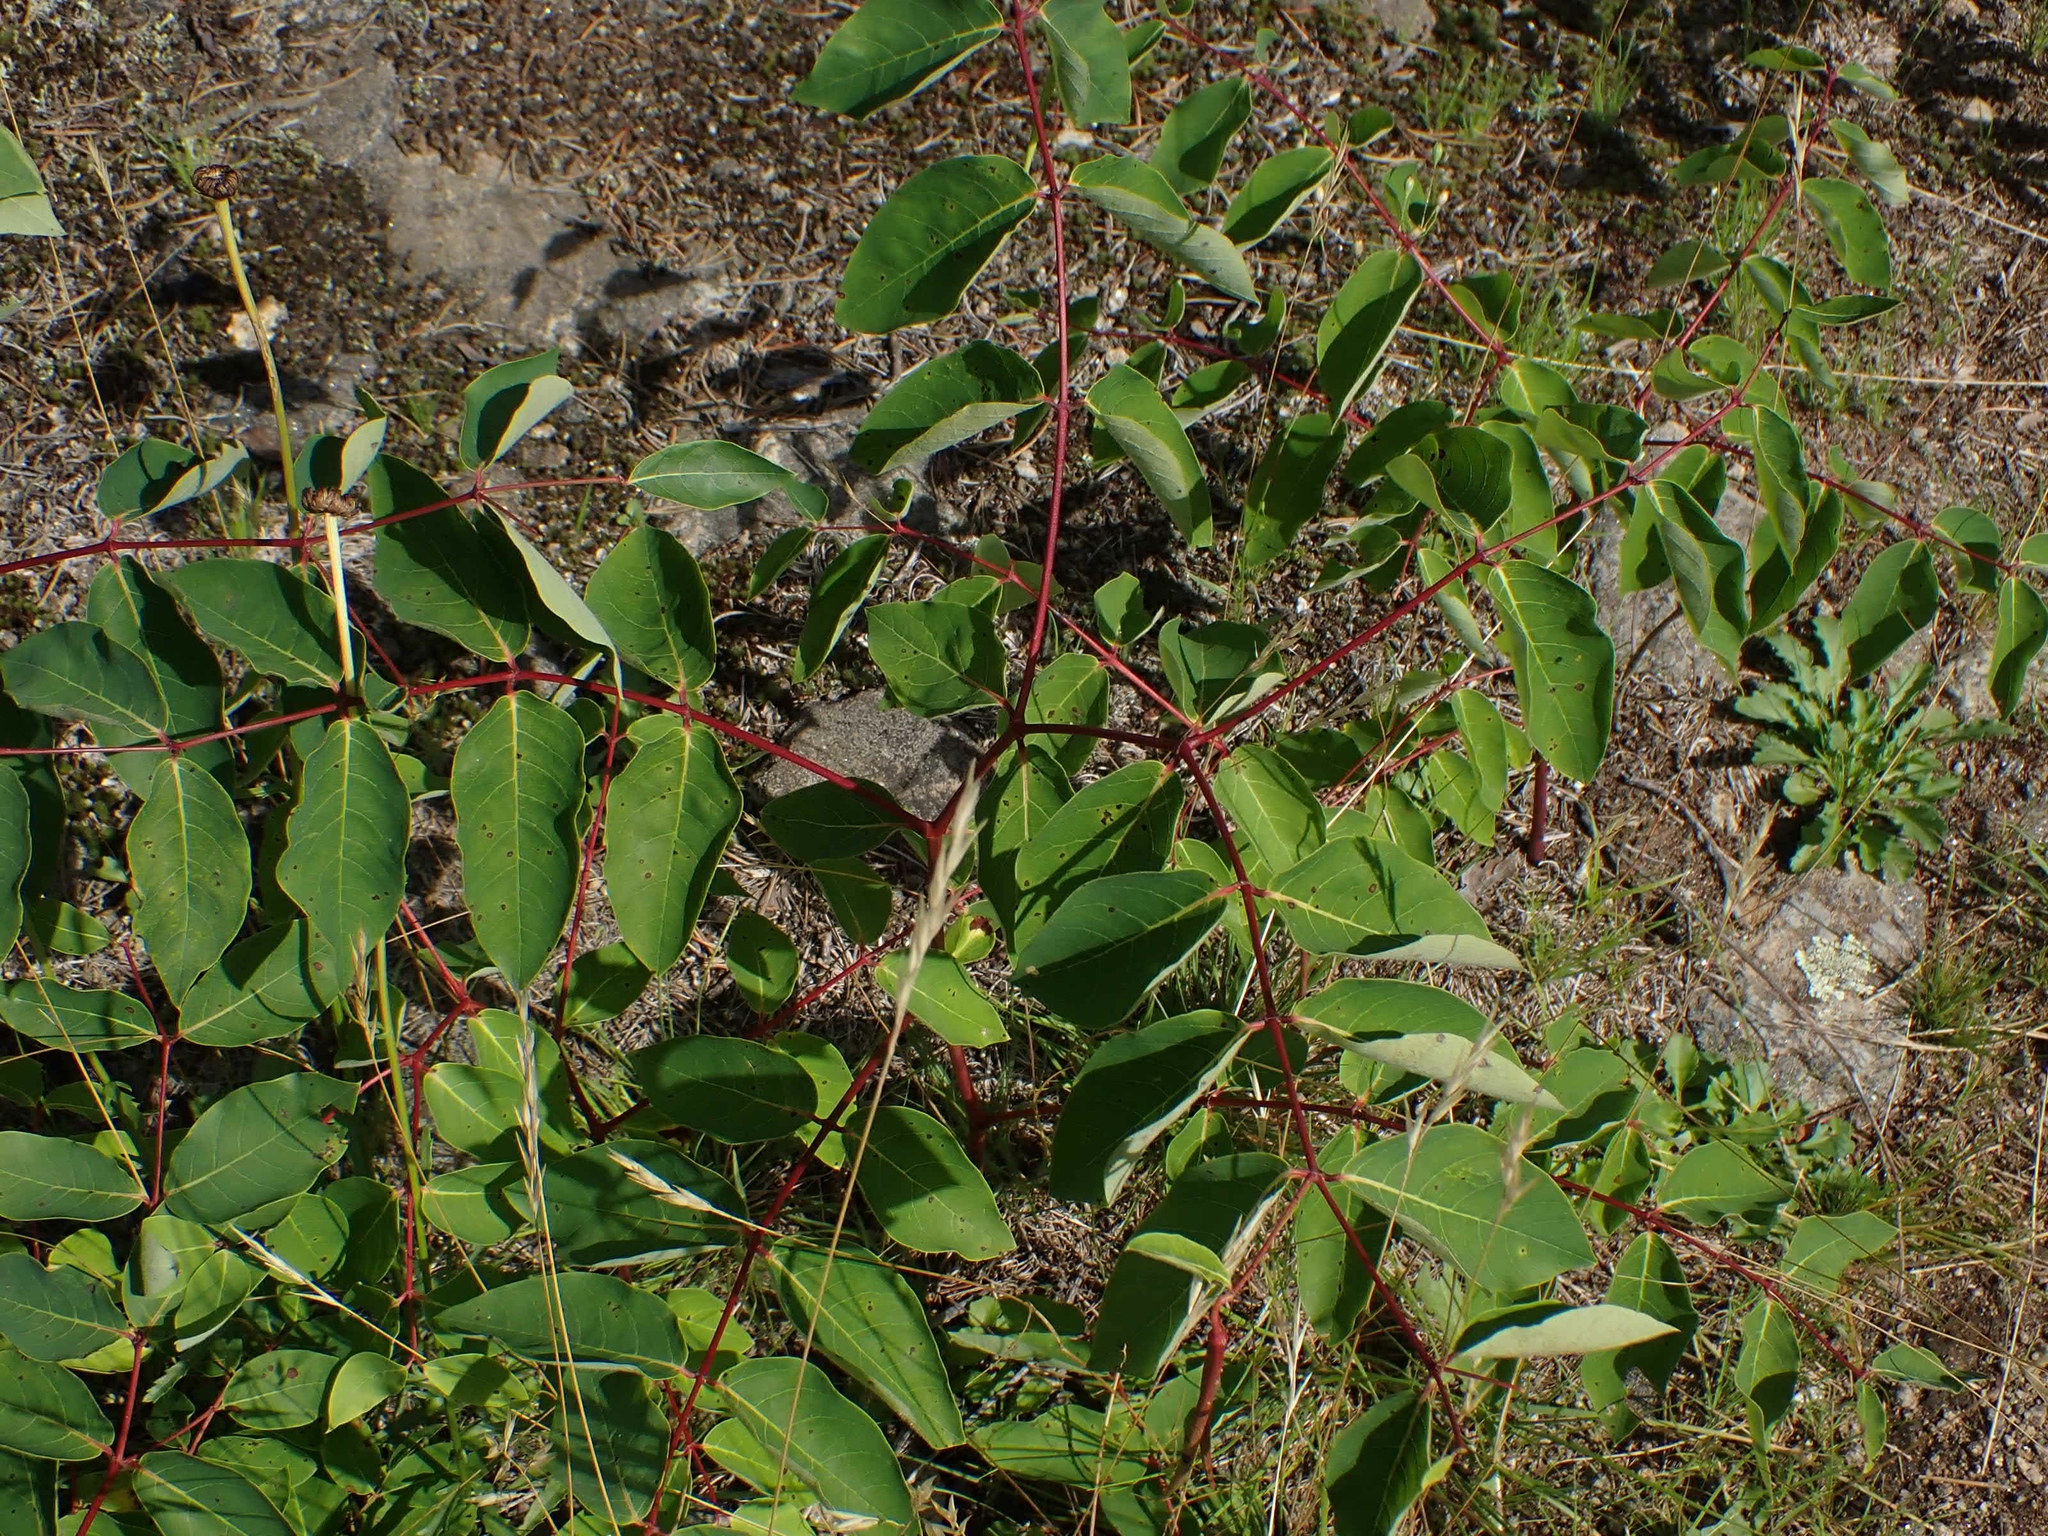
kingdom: Plantae
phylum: Tracheophyta
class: Magnoliopsida
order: Gentianales
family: Apocynaceae
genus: Apocynum
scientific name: Apocynum androsaemifolium
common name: Spreading dogbane
